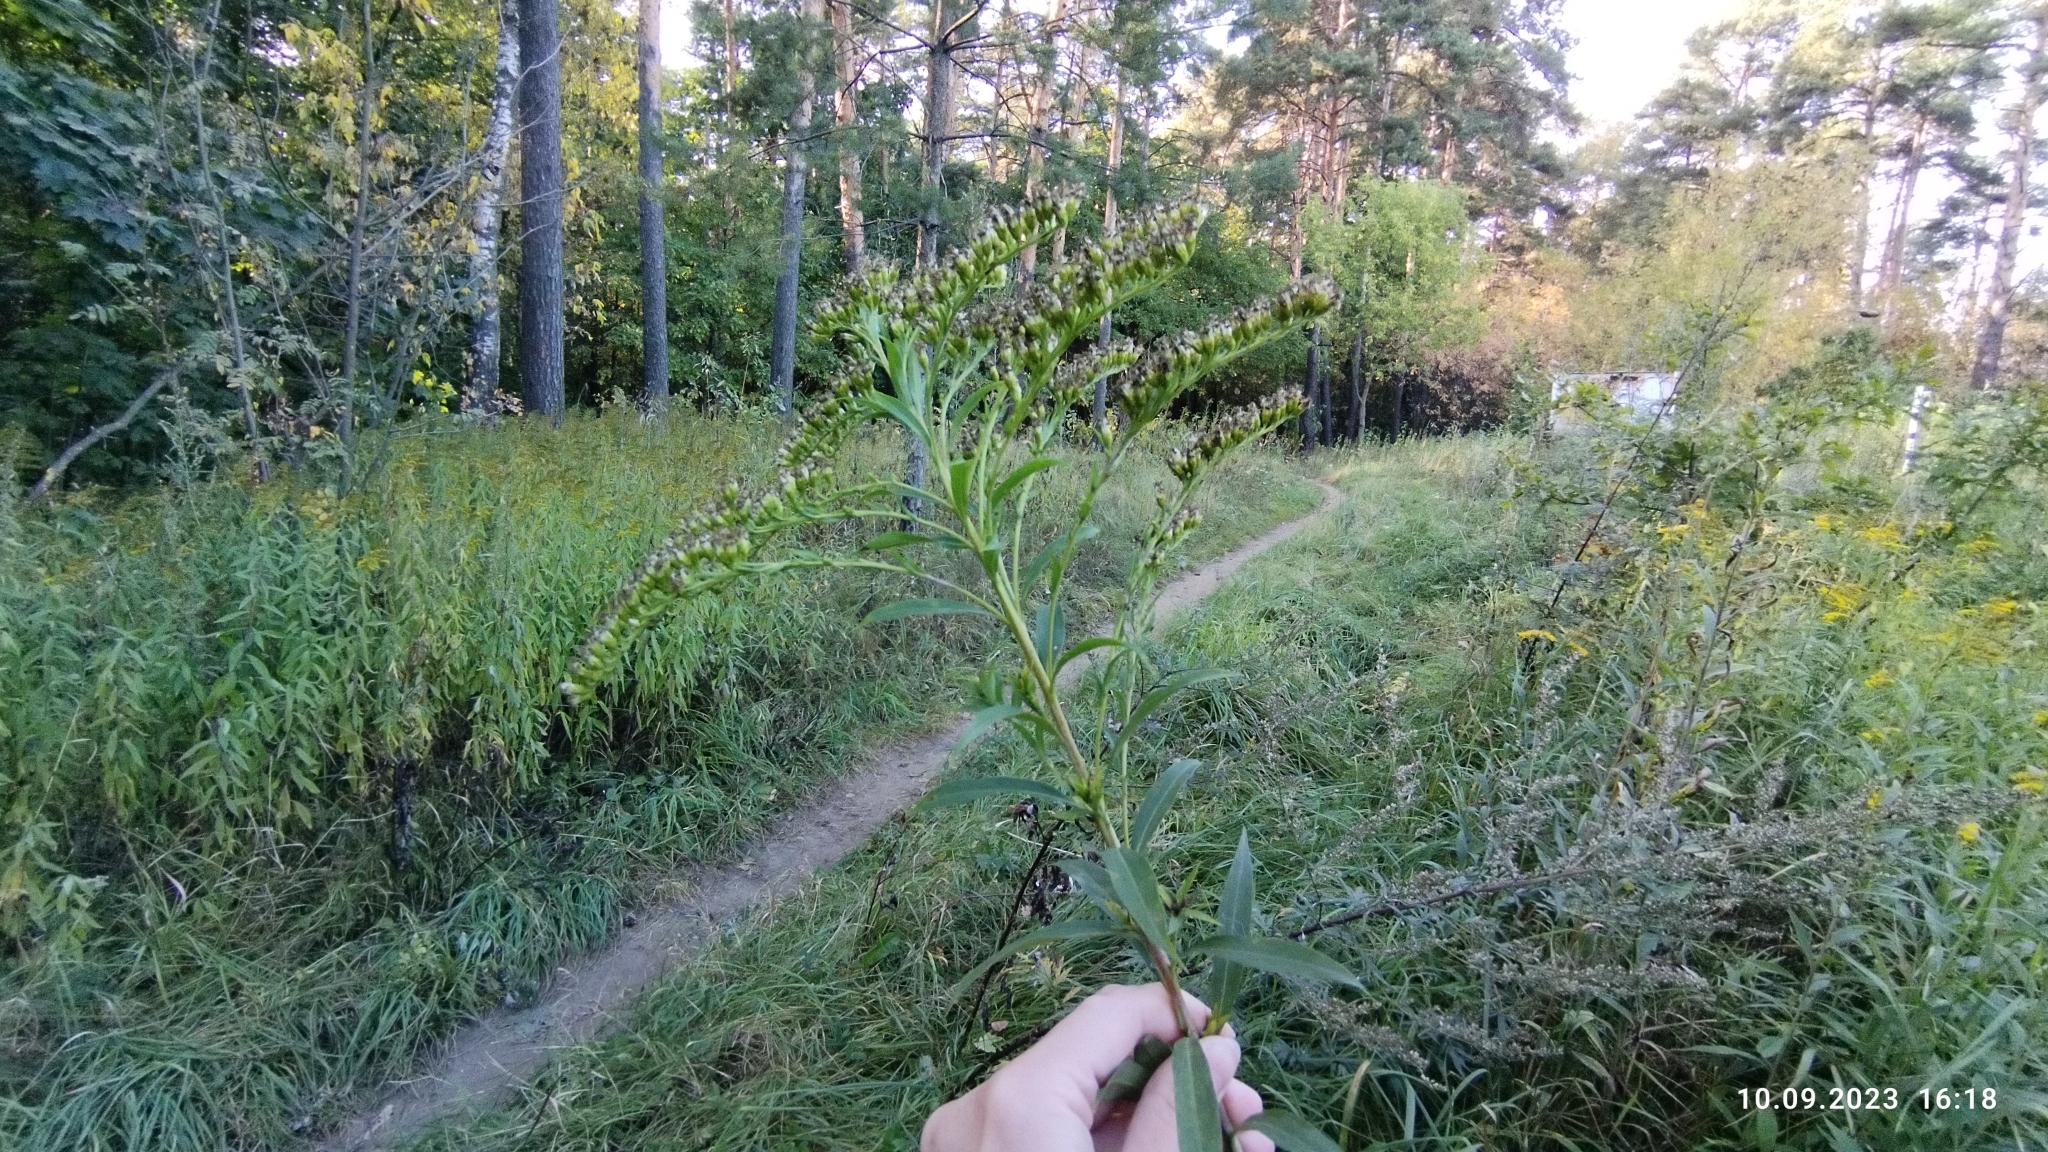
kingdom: Plantae
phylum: Tracheophyta
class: Magnoliopsida
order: Asterales
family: Asteraceae
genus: Solidago
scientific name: Solidago gigantea
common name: Giant goldenrod
